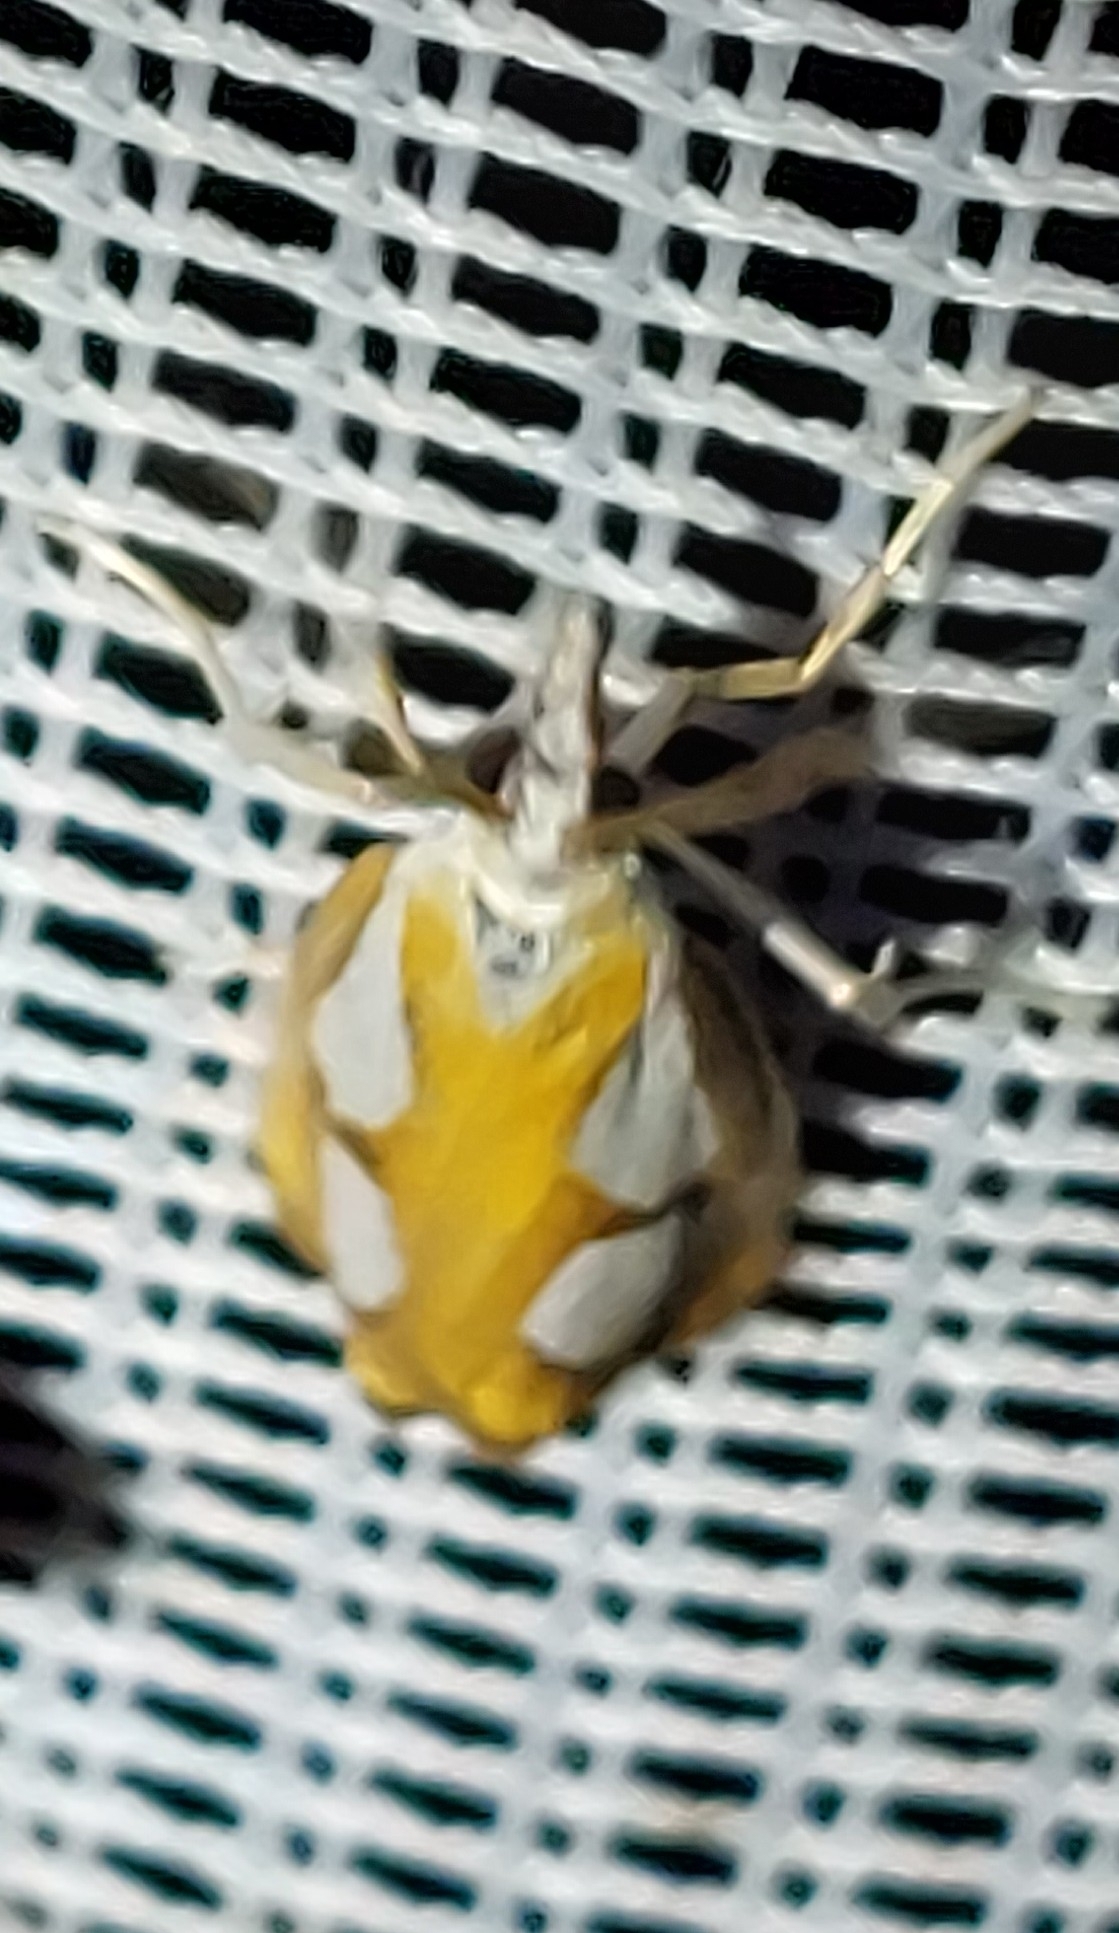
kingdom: Animalia
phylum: Arthropoda
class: Insecta
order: Lepidoptera
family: Crambidae
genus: Catoptria
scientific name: Catoptria pinella
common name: Pearl grass-veneer
